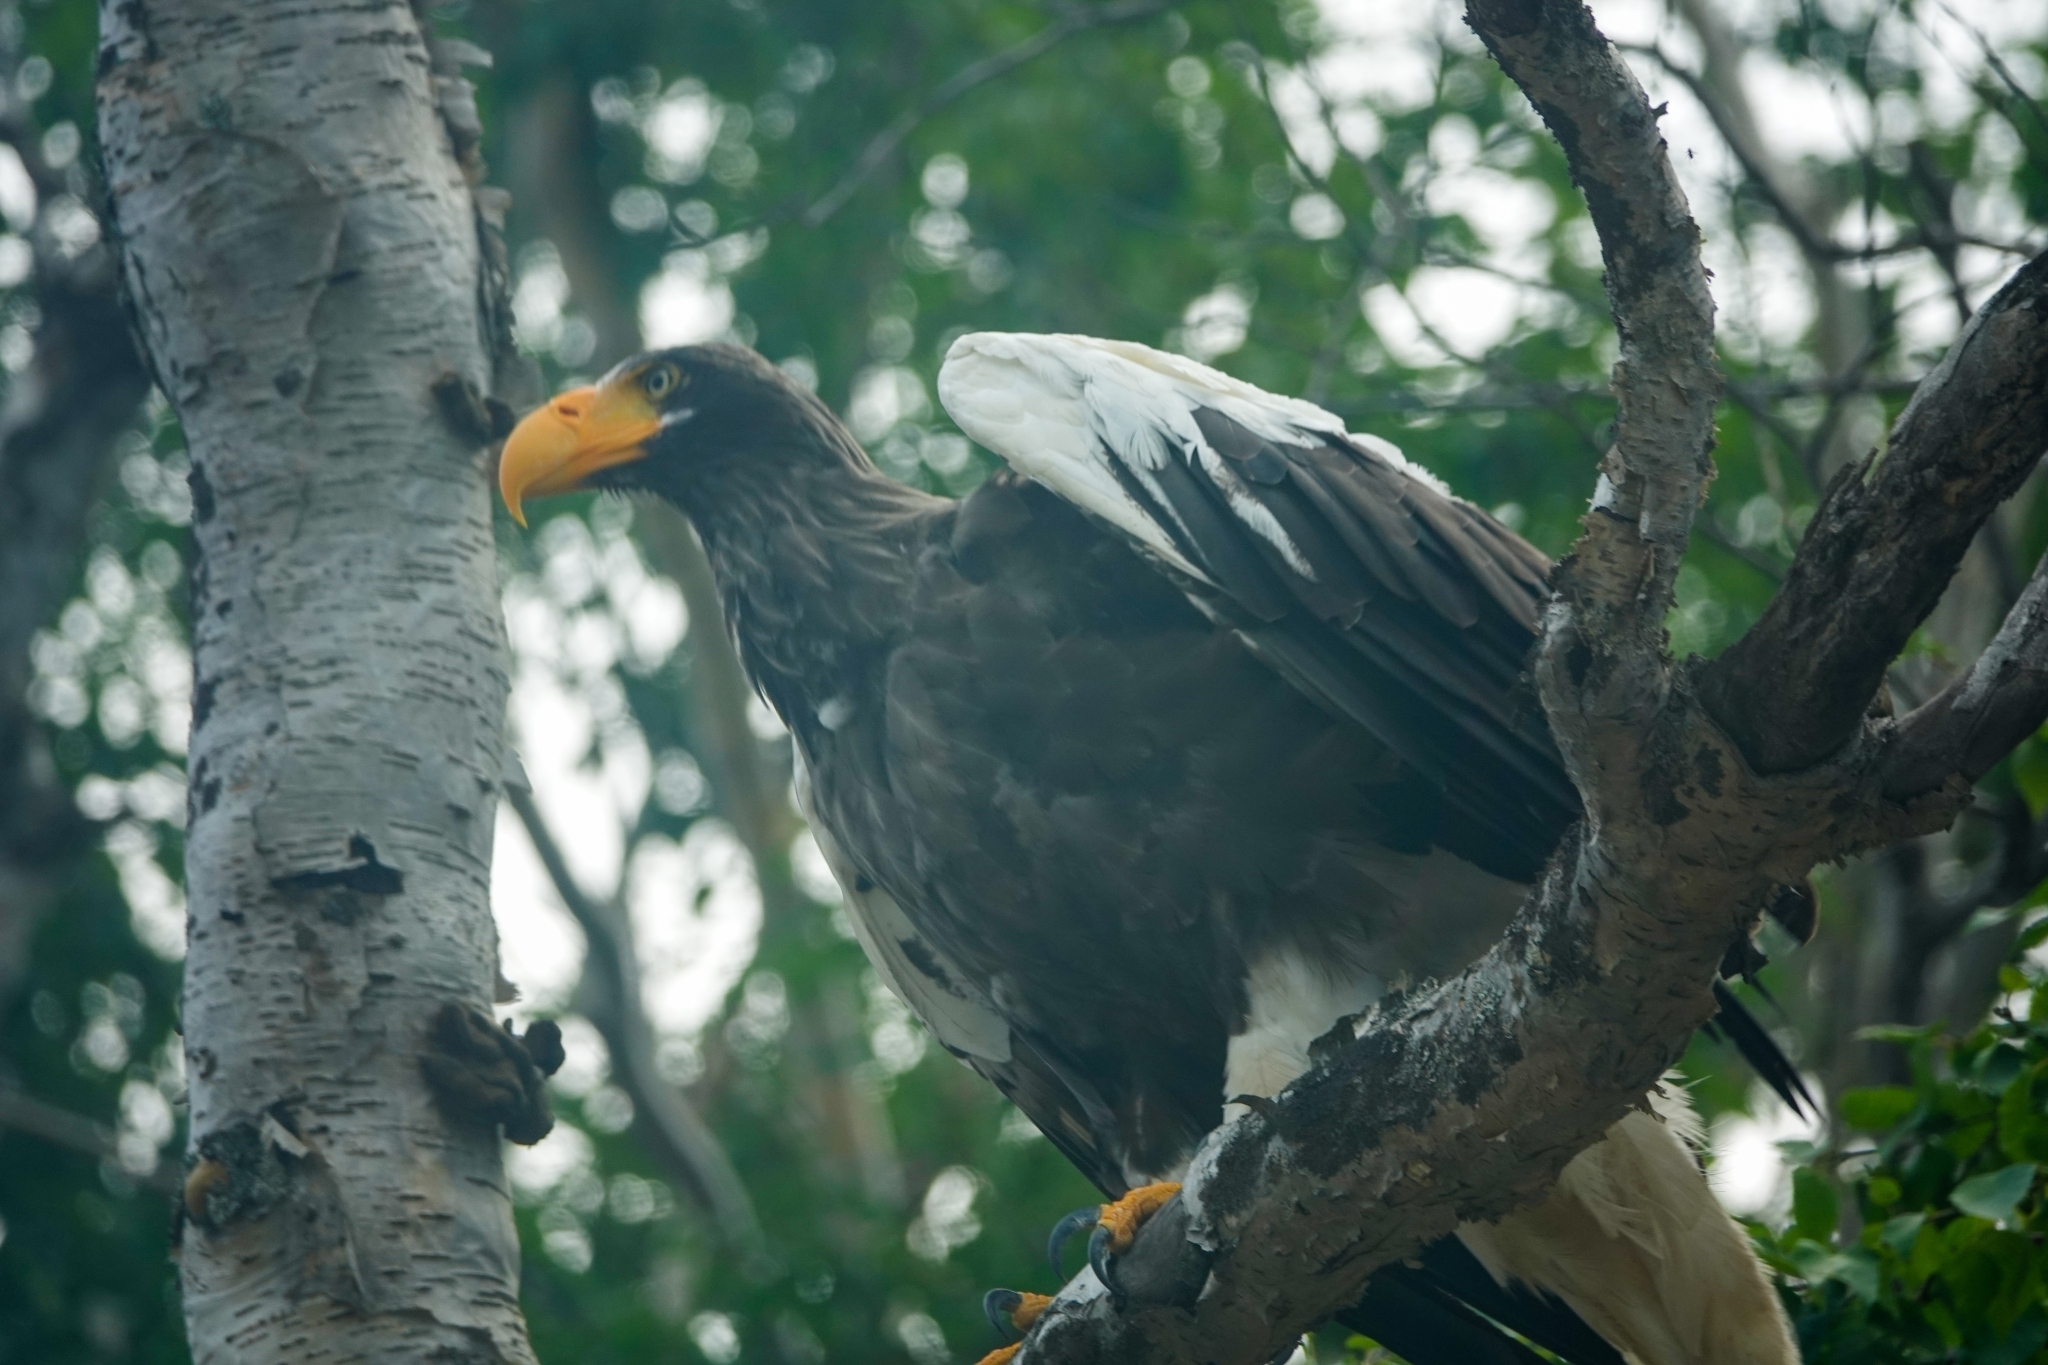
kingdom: Animalia
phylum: Chordata
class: Aves
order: Accipitriformes
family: Accipitridae
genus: Haliaeetus
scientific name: Haliaeetus pelagicus
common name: Steller's sea eagle
